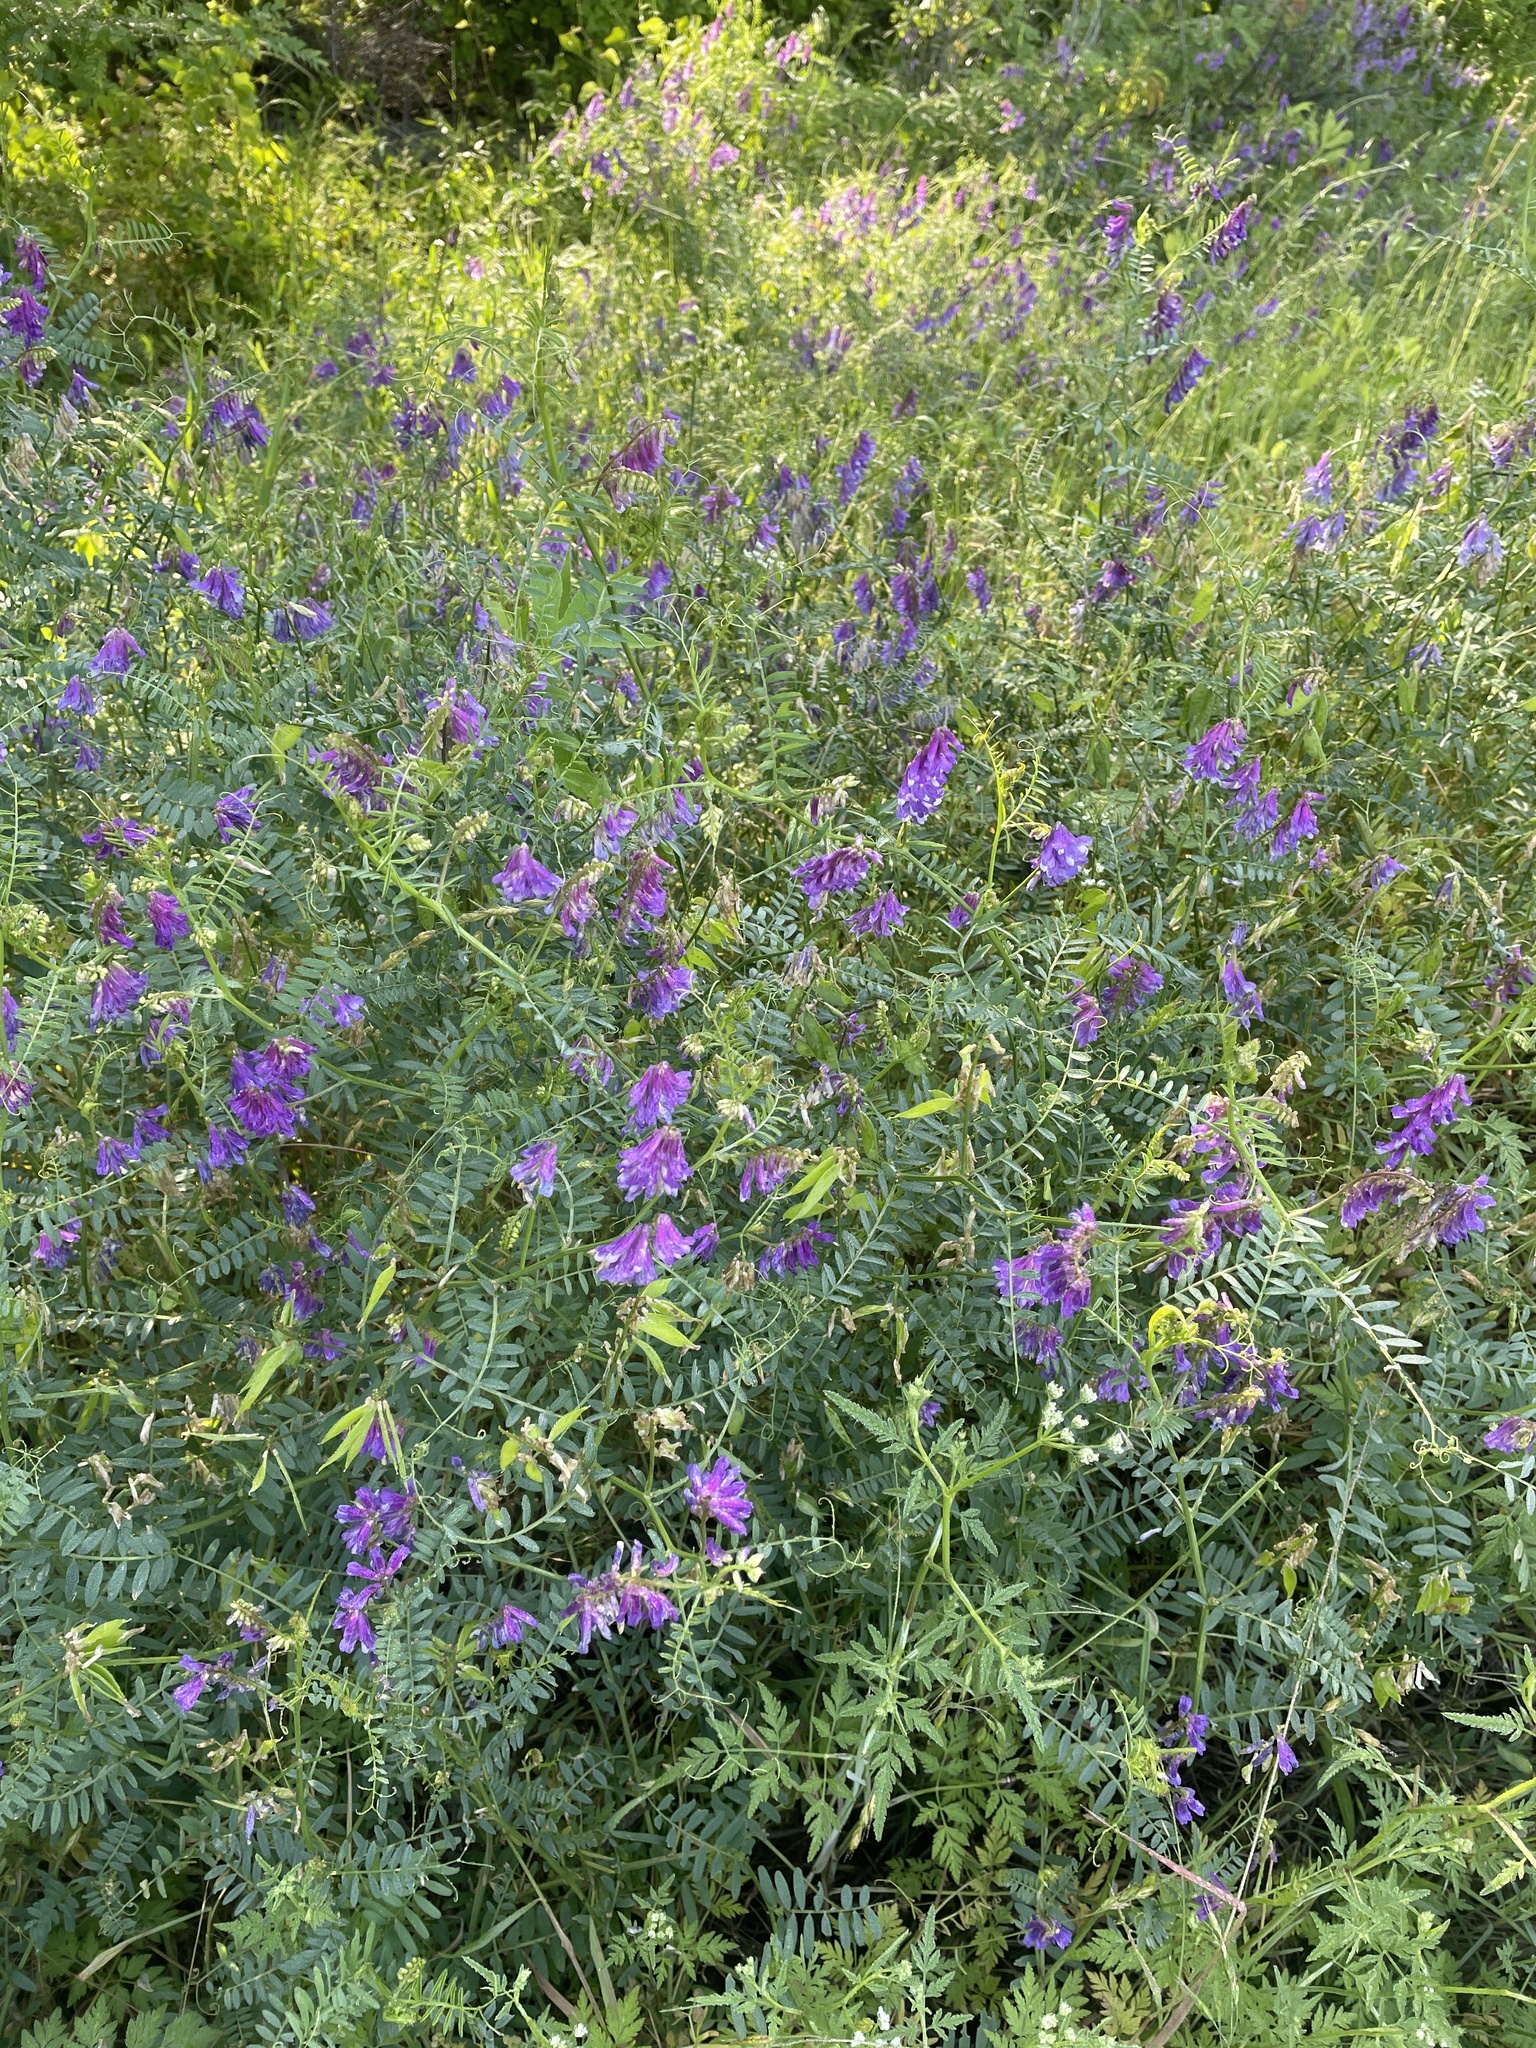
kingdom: Plantae
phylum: Tracheophyta
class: Magnoliopsida
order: Fabales
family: Fabaceae
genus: Vicia
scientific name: Vicia villosa
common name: Fodder vetch
